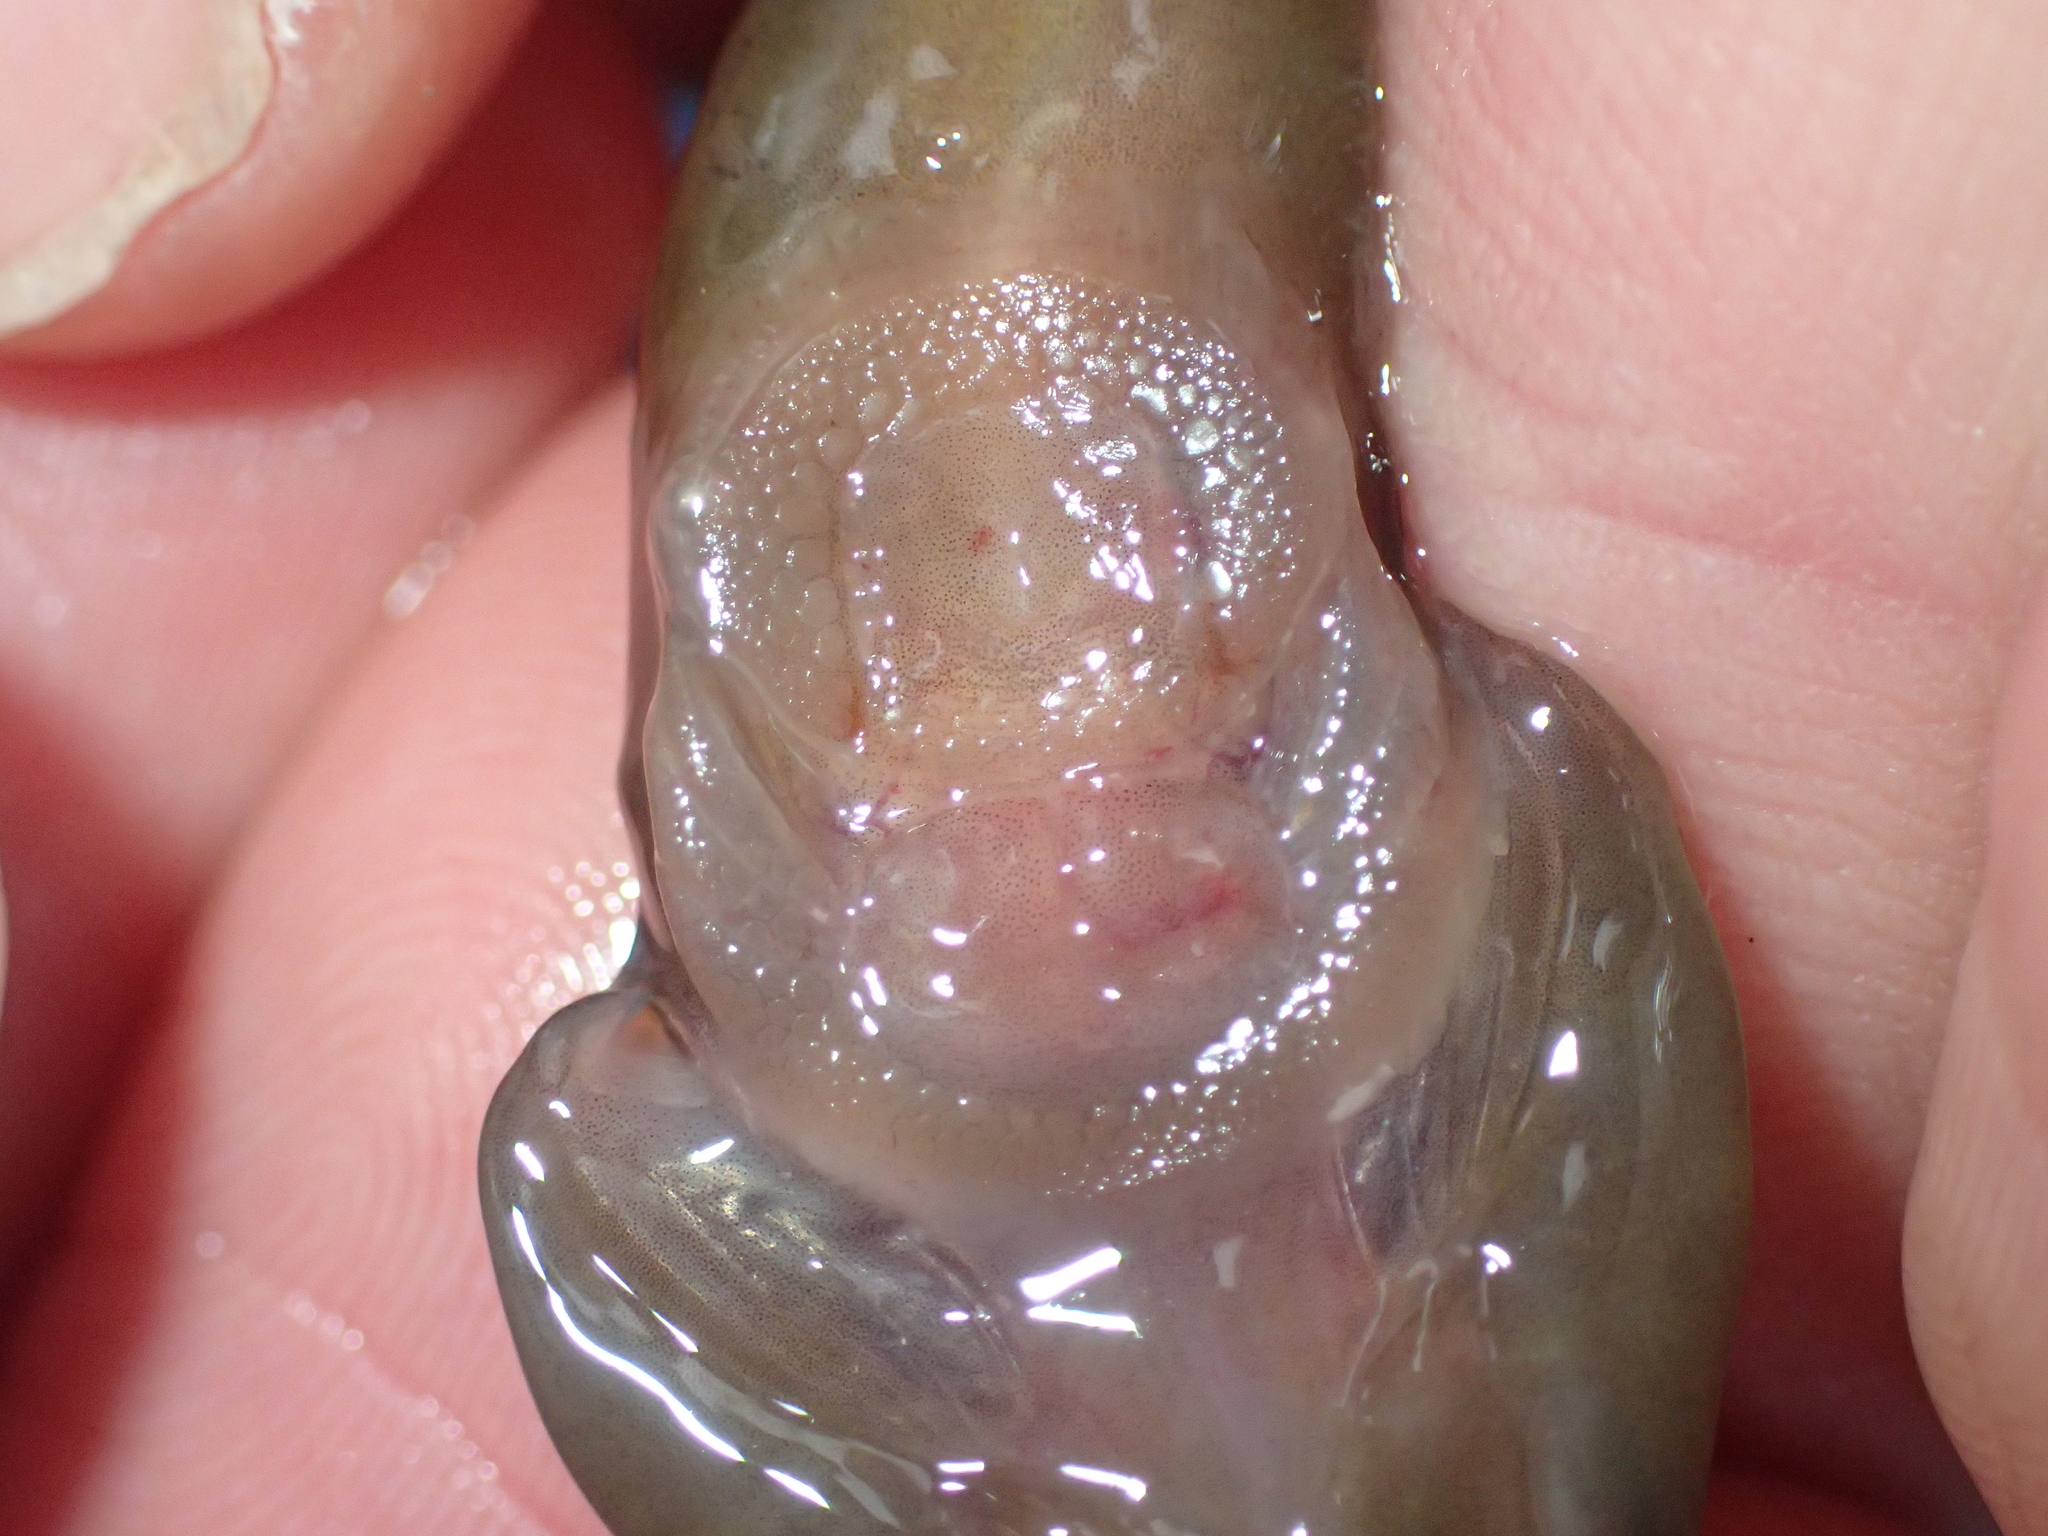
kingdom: Animalia
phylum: Chordata
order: Gobiesociformes
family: Gobiesocidae
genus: Lepadogaster
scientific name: Lepadogaster purpurea
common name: Cornish sucker
